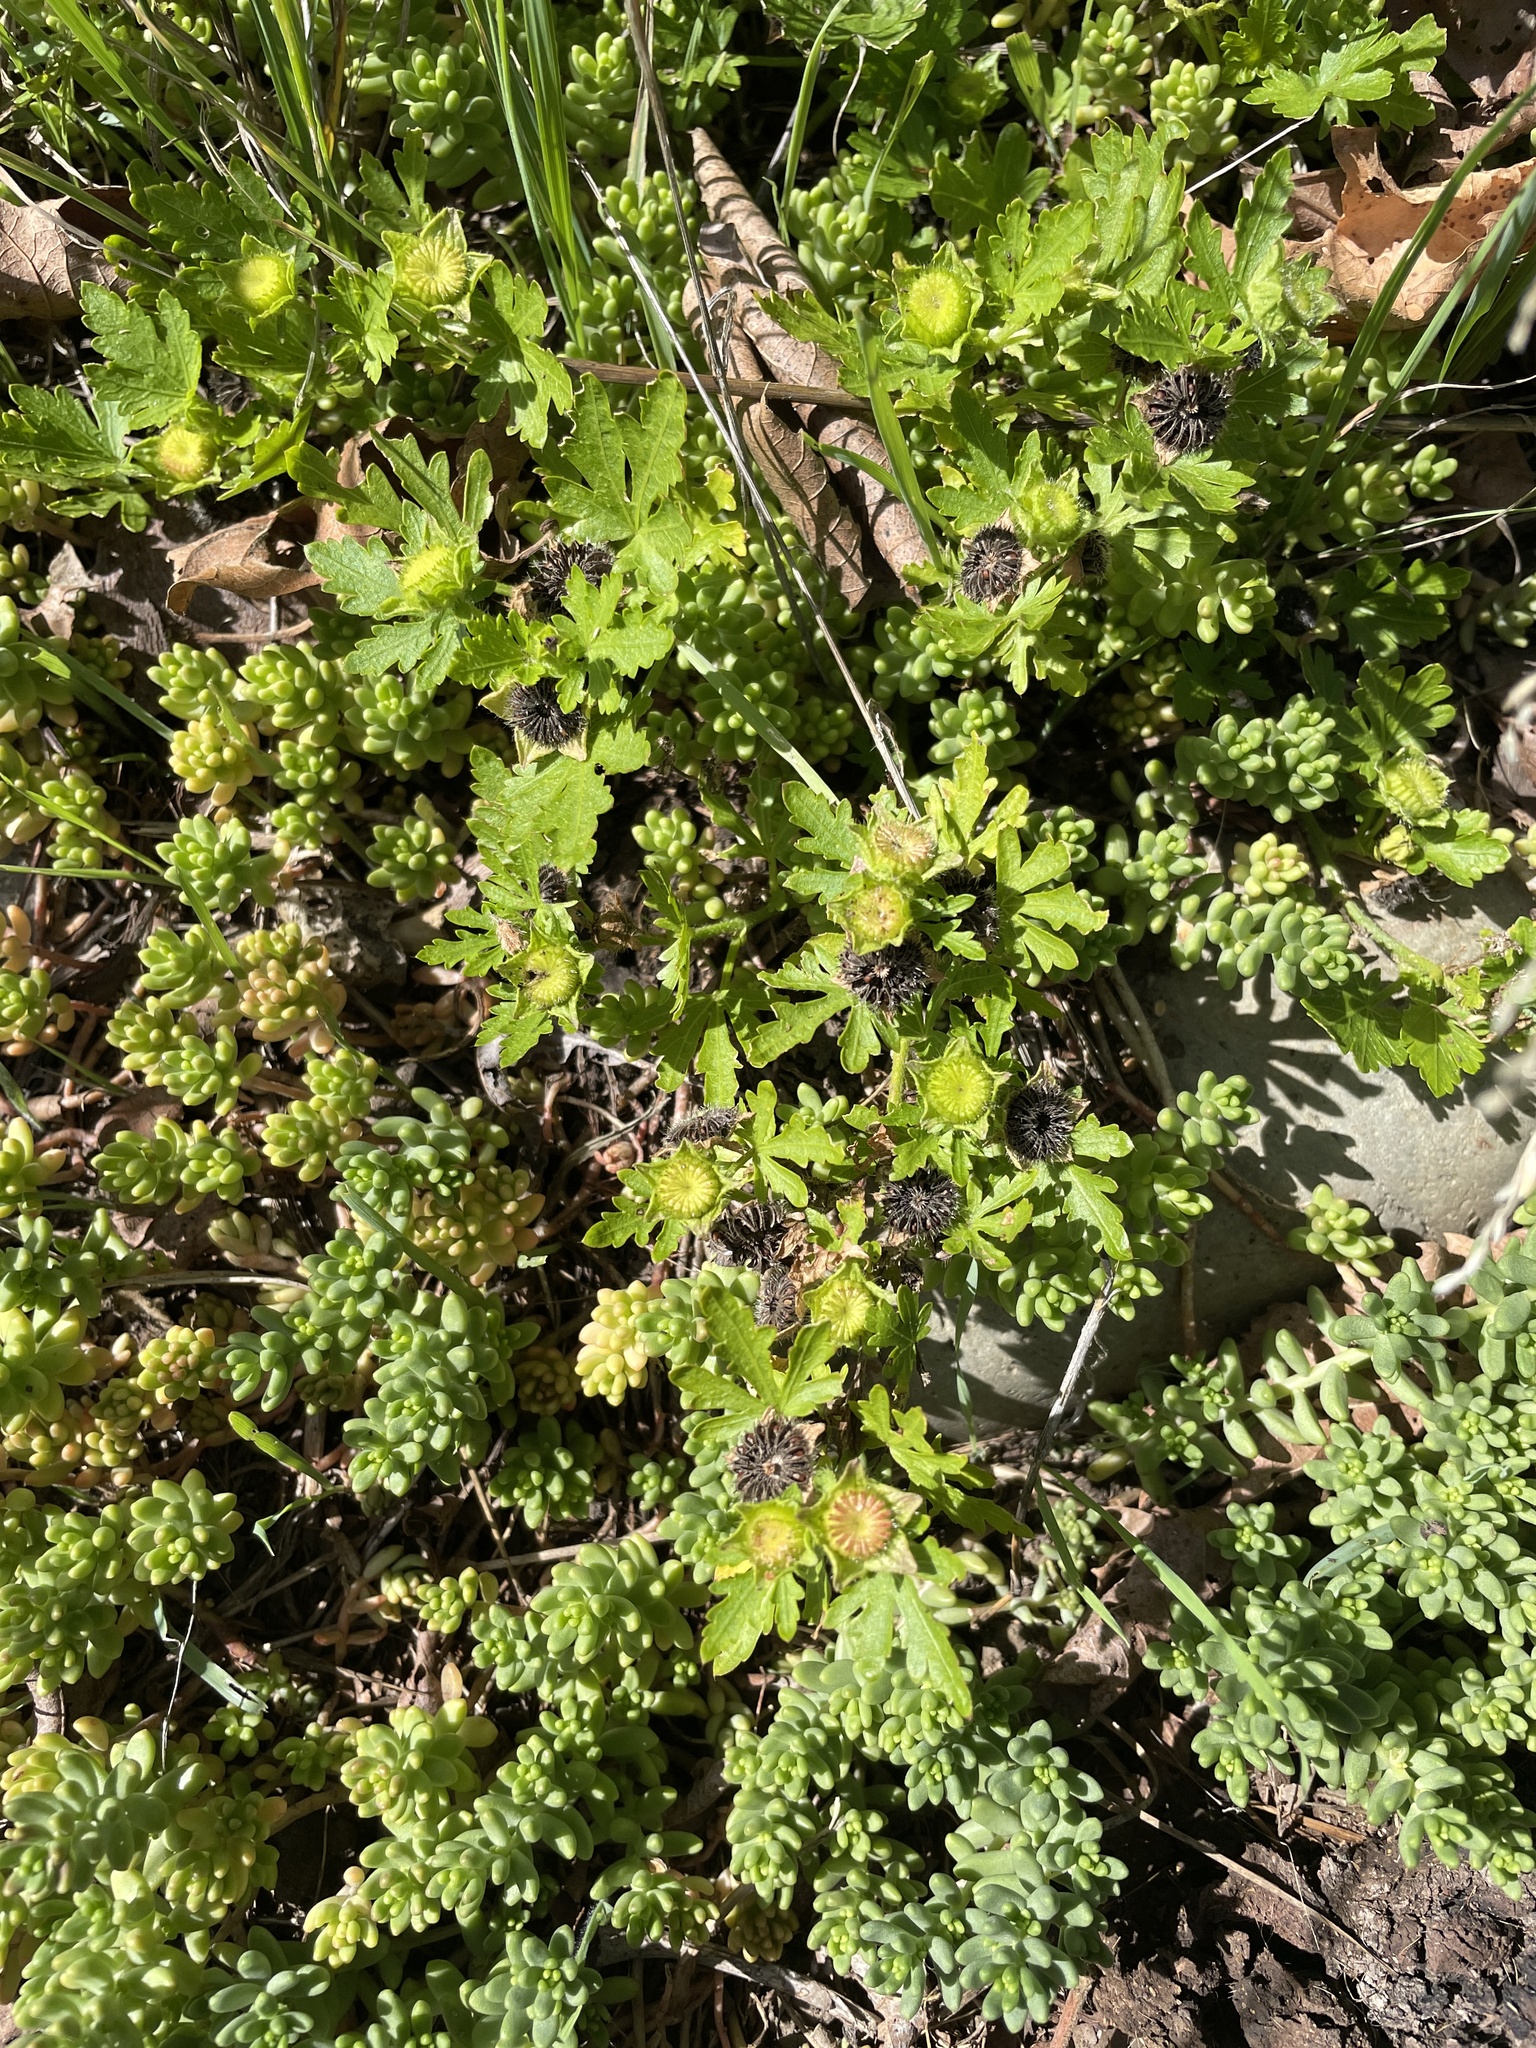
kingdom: Plantae
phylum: Tracheophyta
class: Magnoliopsida
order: Malvales
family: Malvaceae
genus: Modiola
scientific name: Modiola caroliniana
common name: Carolina bristlemallow
